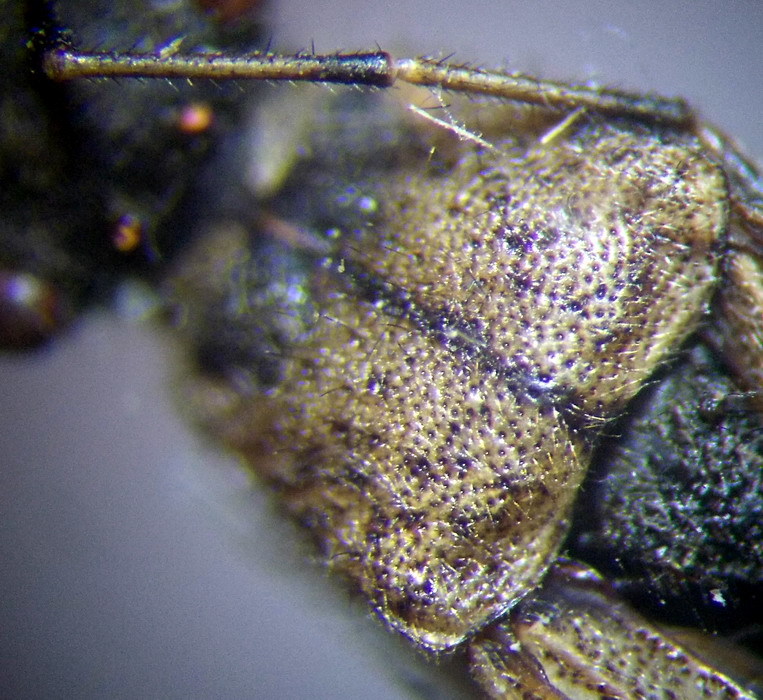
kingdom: Animalia
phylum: Arthropoda
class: Insecta
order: Hemiptera
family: Alydidae
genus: Alydus
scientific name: Alydus calcaratus
